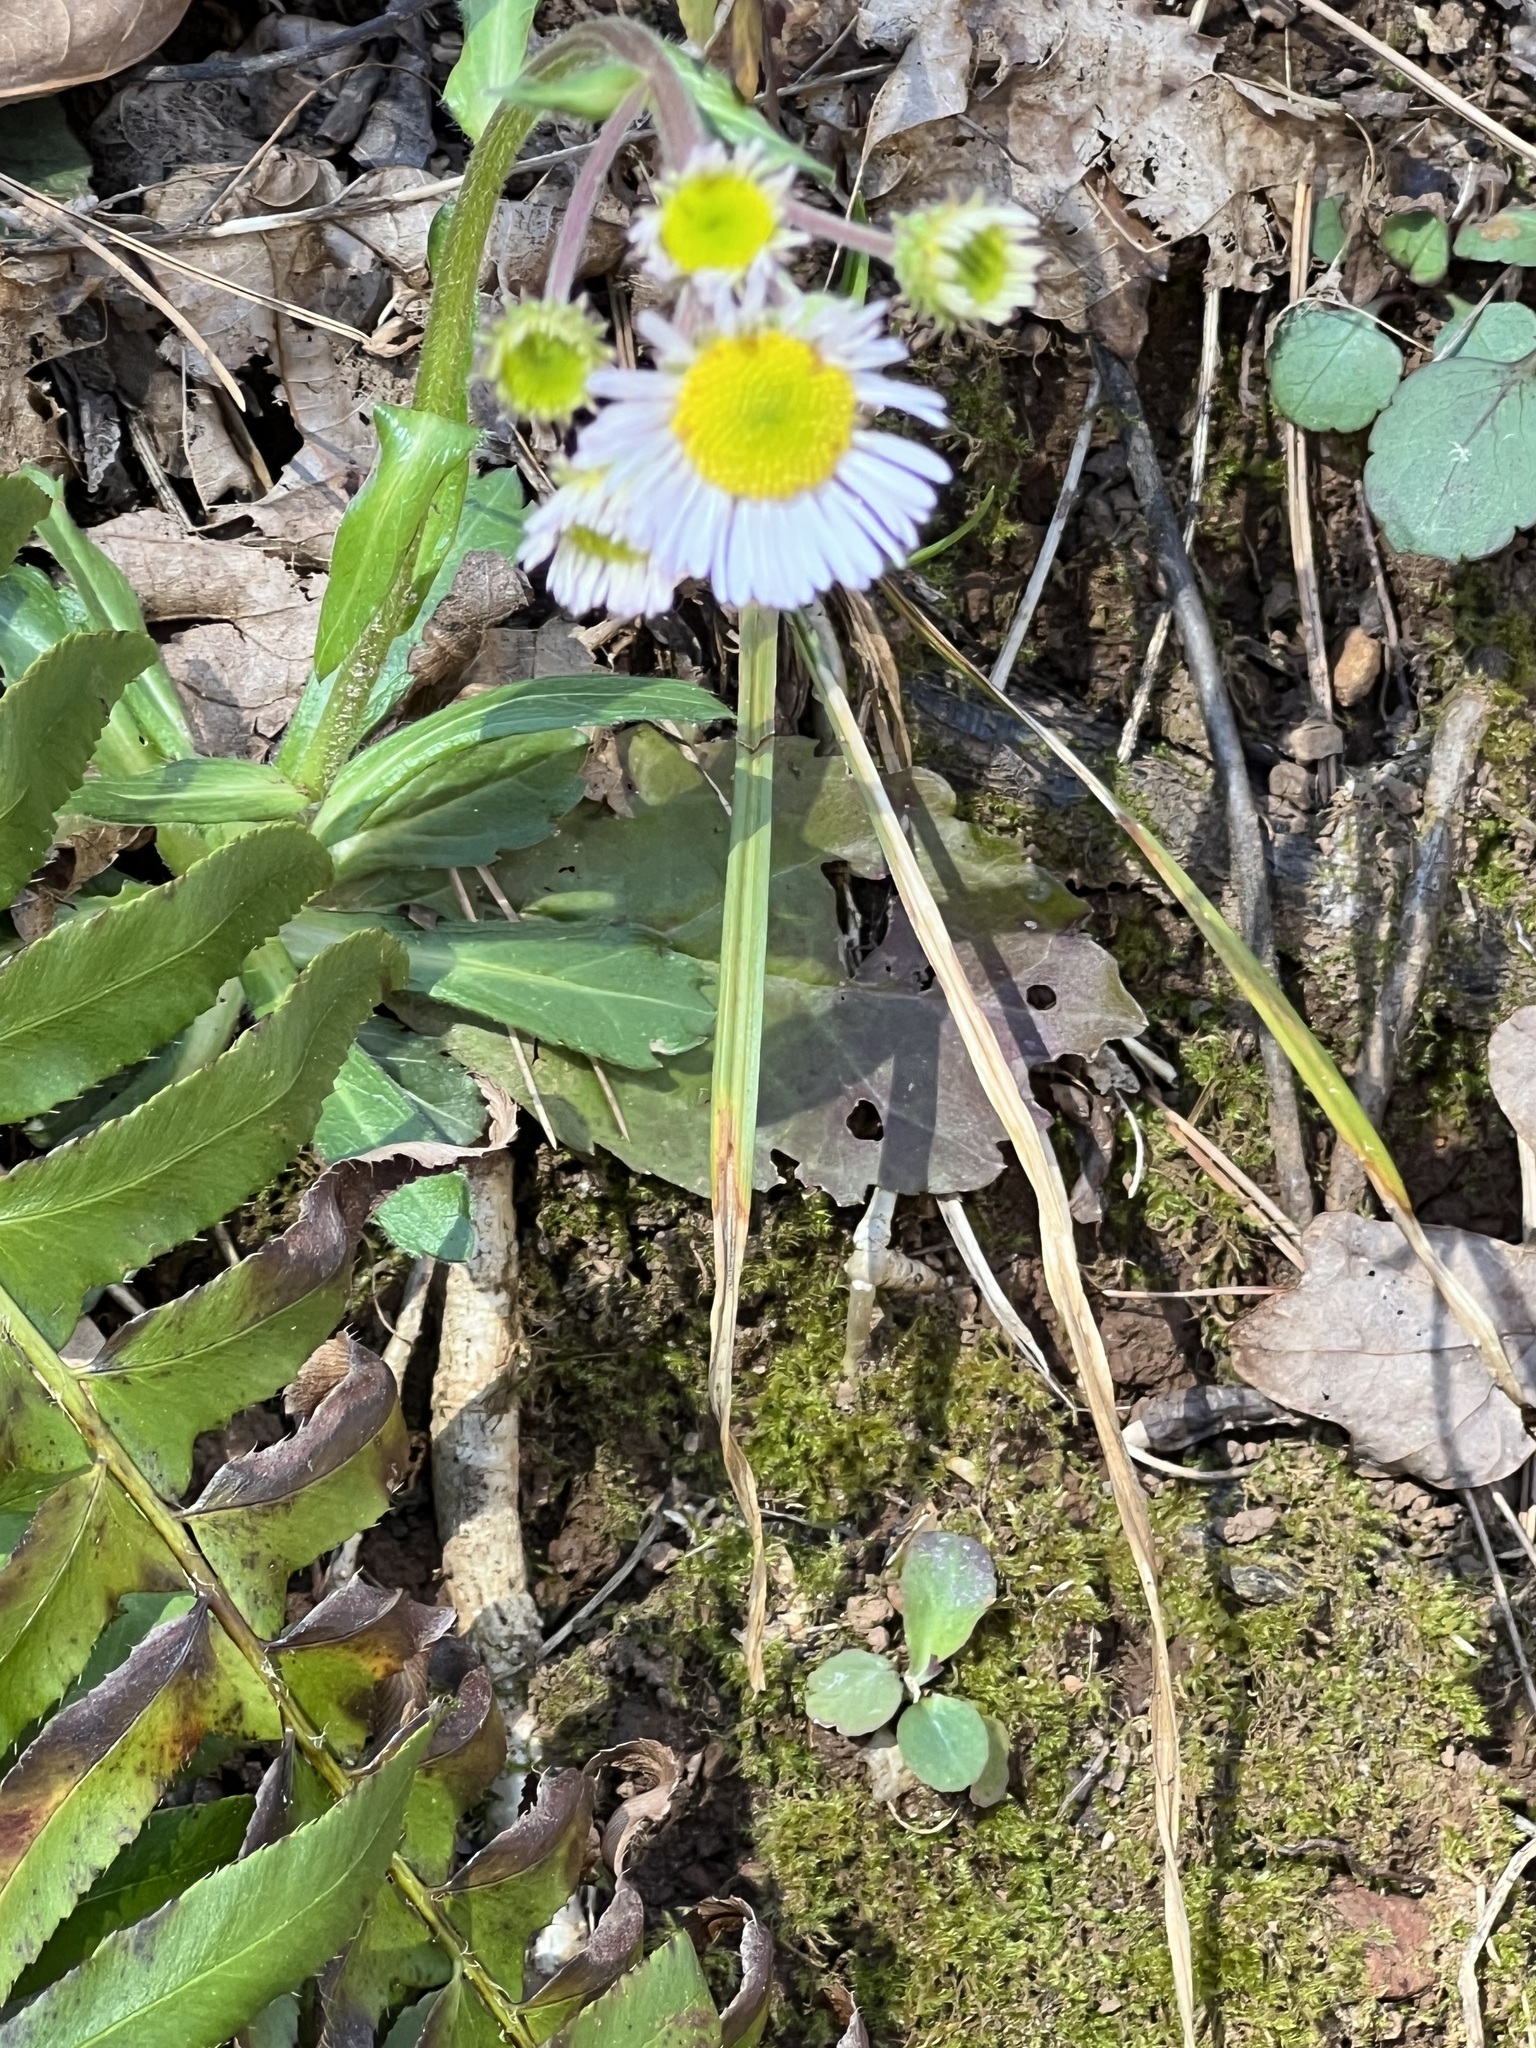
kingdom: Plantae
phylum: Tracheophyta
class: Magnoliopsida
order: Asterales
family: Asteraceae
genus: Erigeron
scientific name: Erigeron pulchellus
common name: Hairy fleabane
